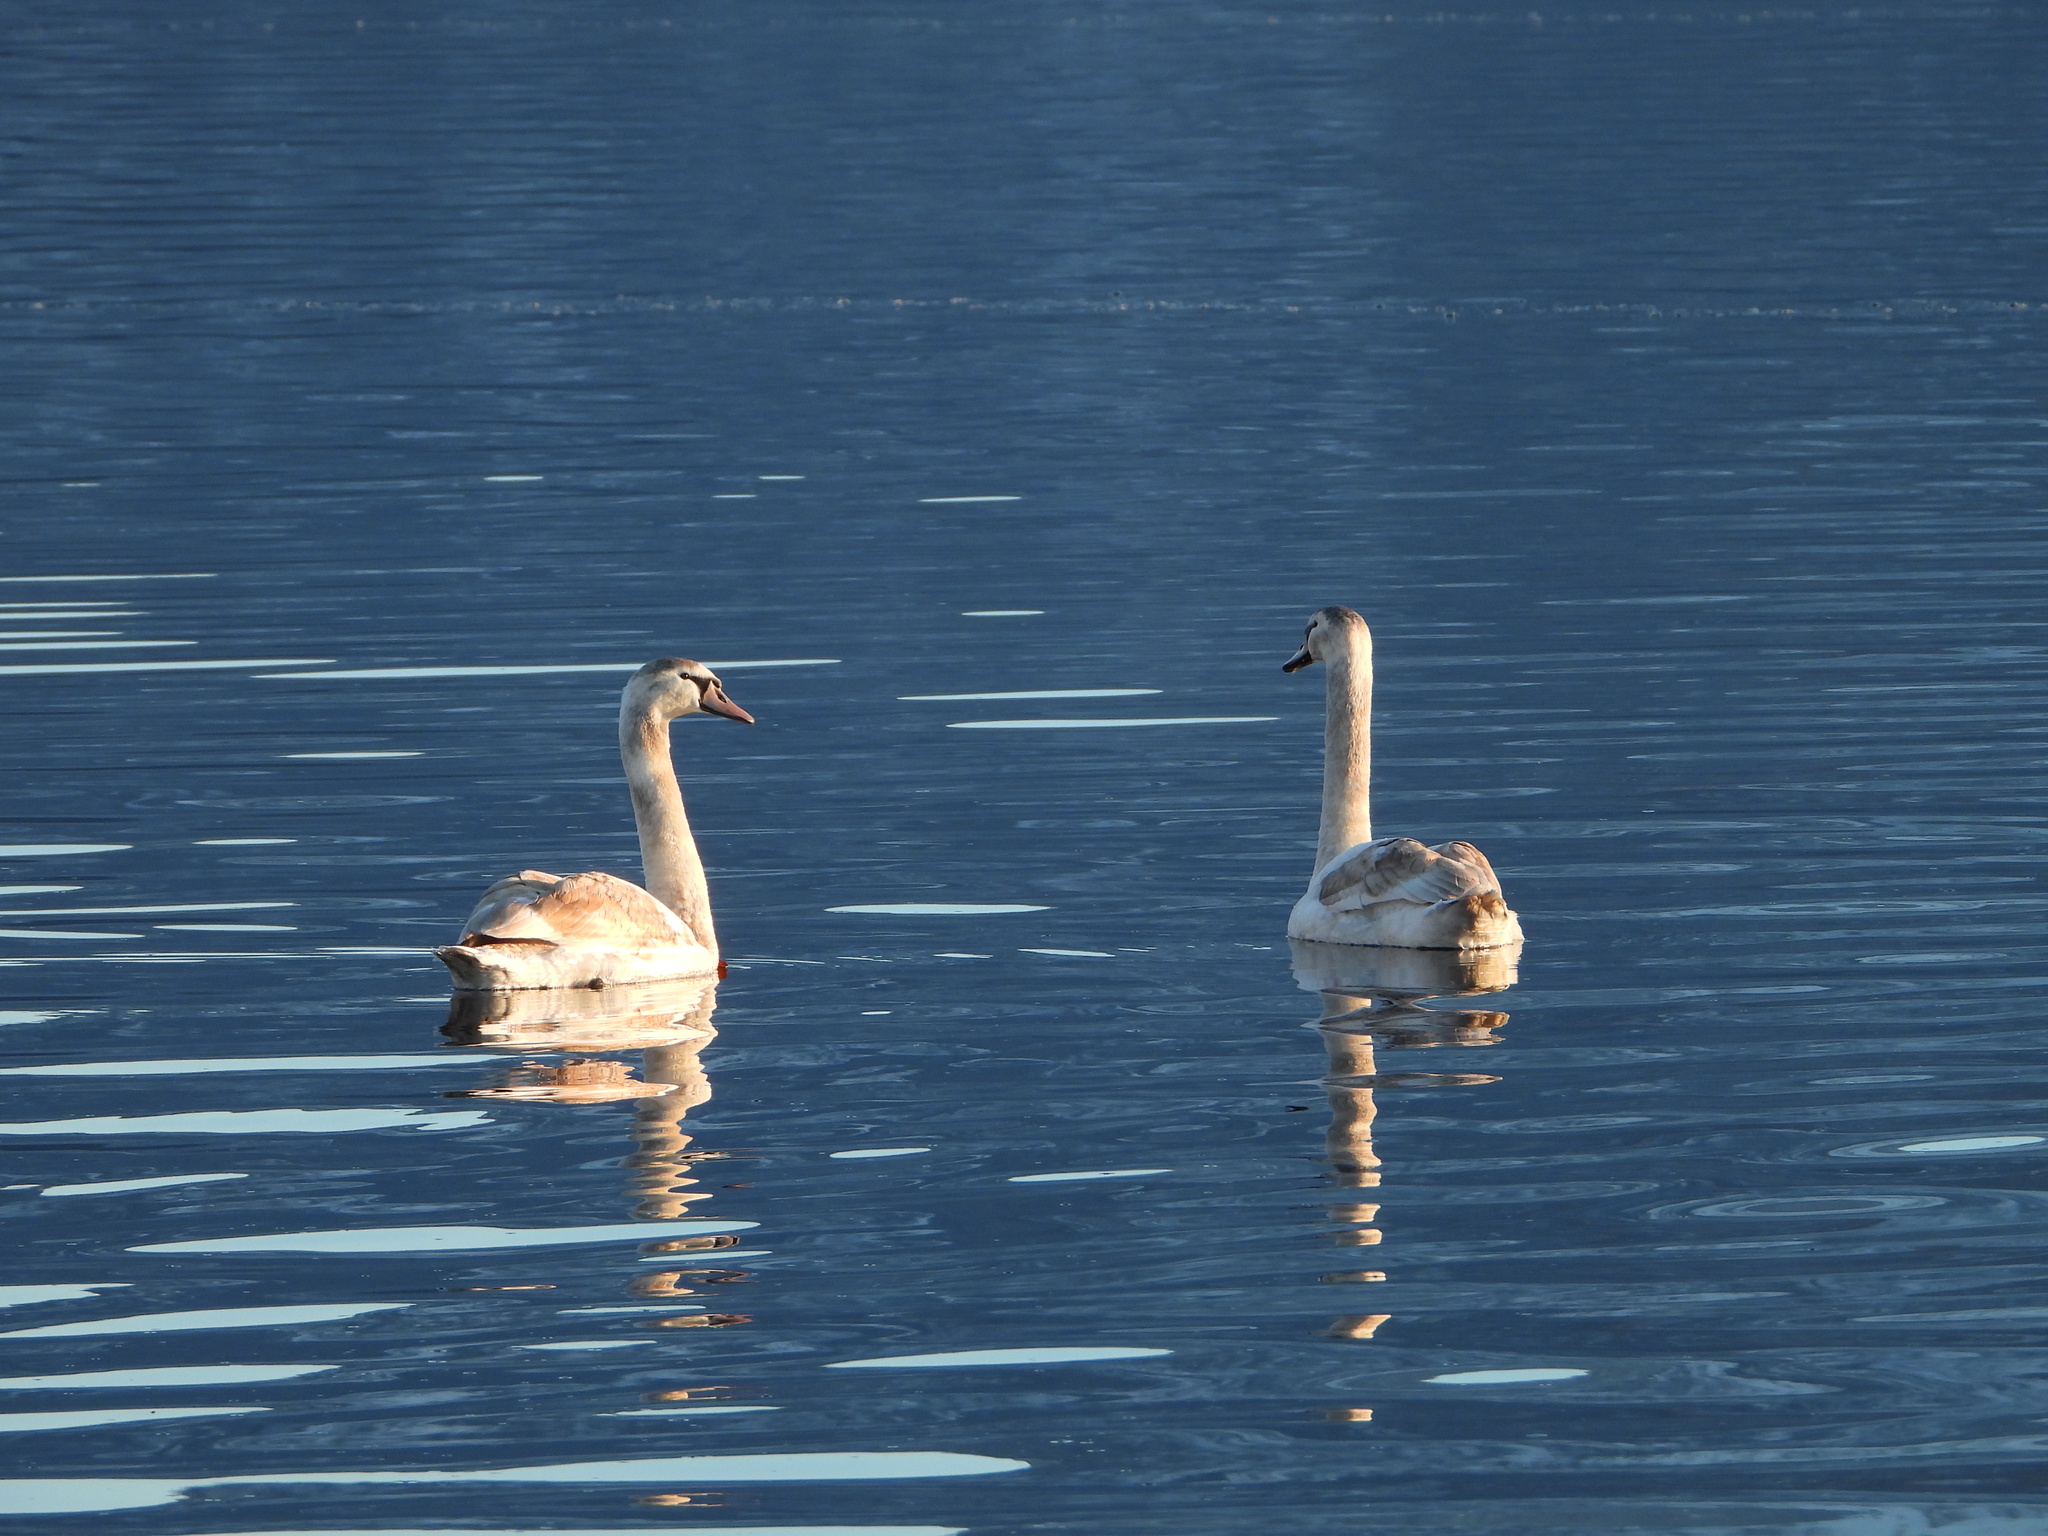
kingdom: Animalia
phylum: Chordata
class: Aves
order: Anseriformes
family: Anatidae
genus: Cygnus
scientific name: Cygnus olor
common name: Mute swan
